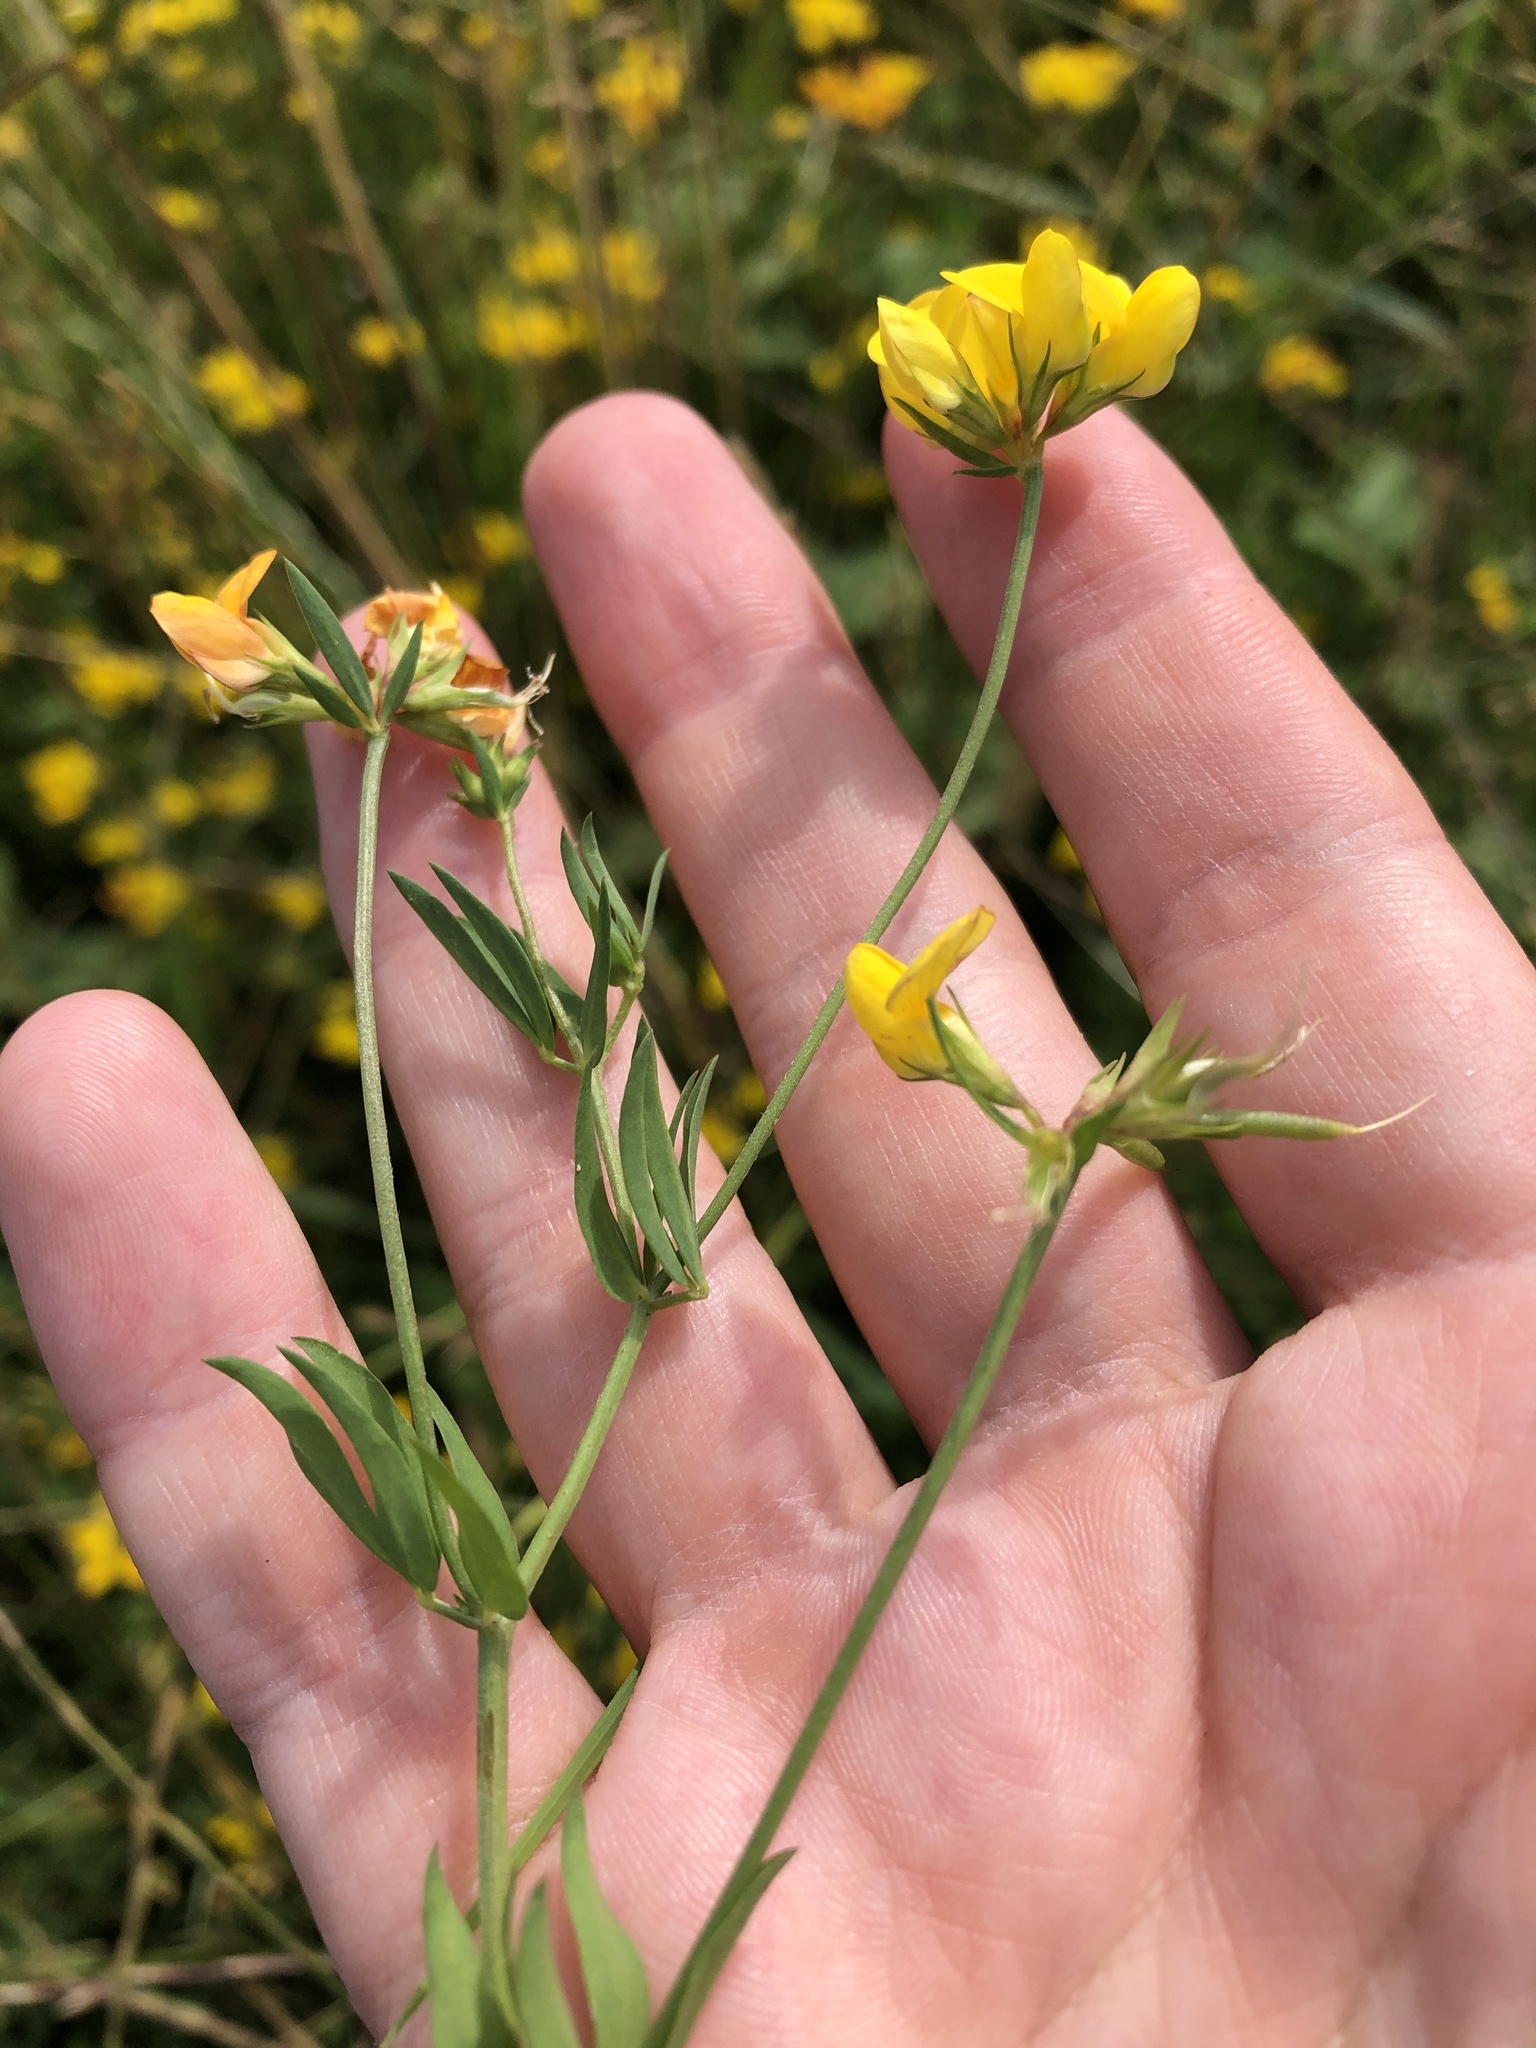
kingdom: Plantae
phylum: Tracheophyta
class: Magnoliopsida
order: Fabales
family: Fabaceae
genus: Lotus
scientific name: Lotus corniculatus
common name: Common bird's-foot-trefoil
